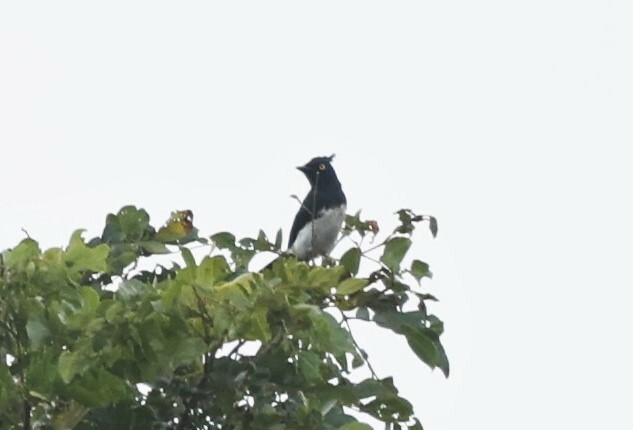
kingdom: Animalia
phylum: Chordata
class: Aves
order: Passeriformes
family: Platysteiridae
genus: Bias
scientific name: Bias musicus
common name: Black-and-white shrike-flycatcher
